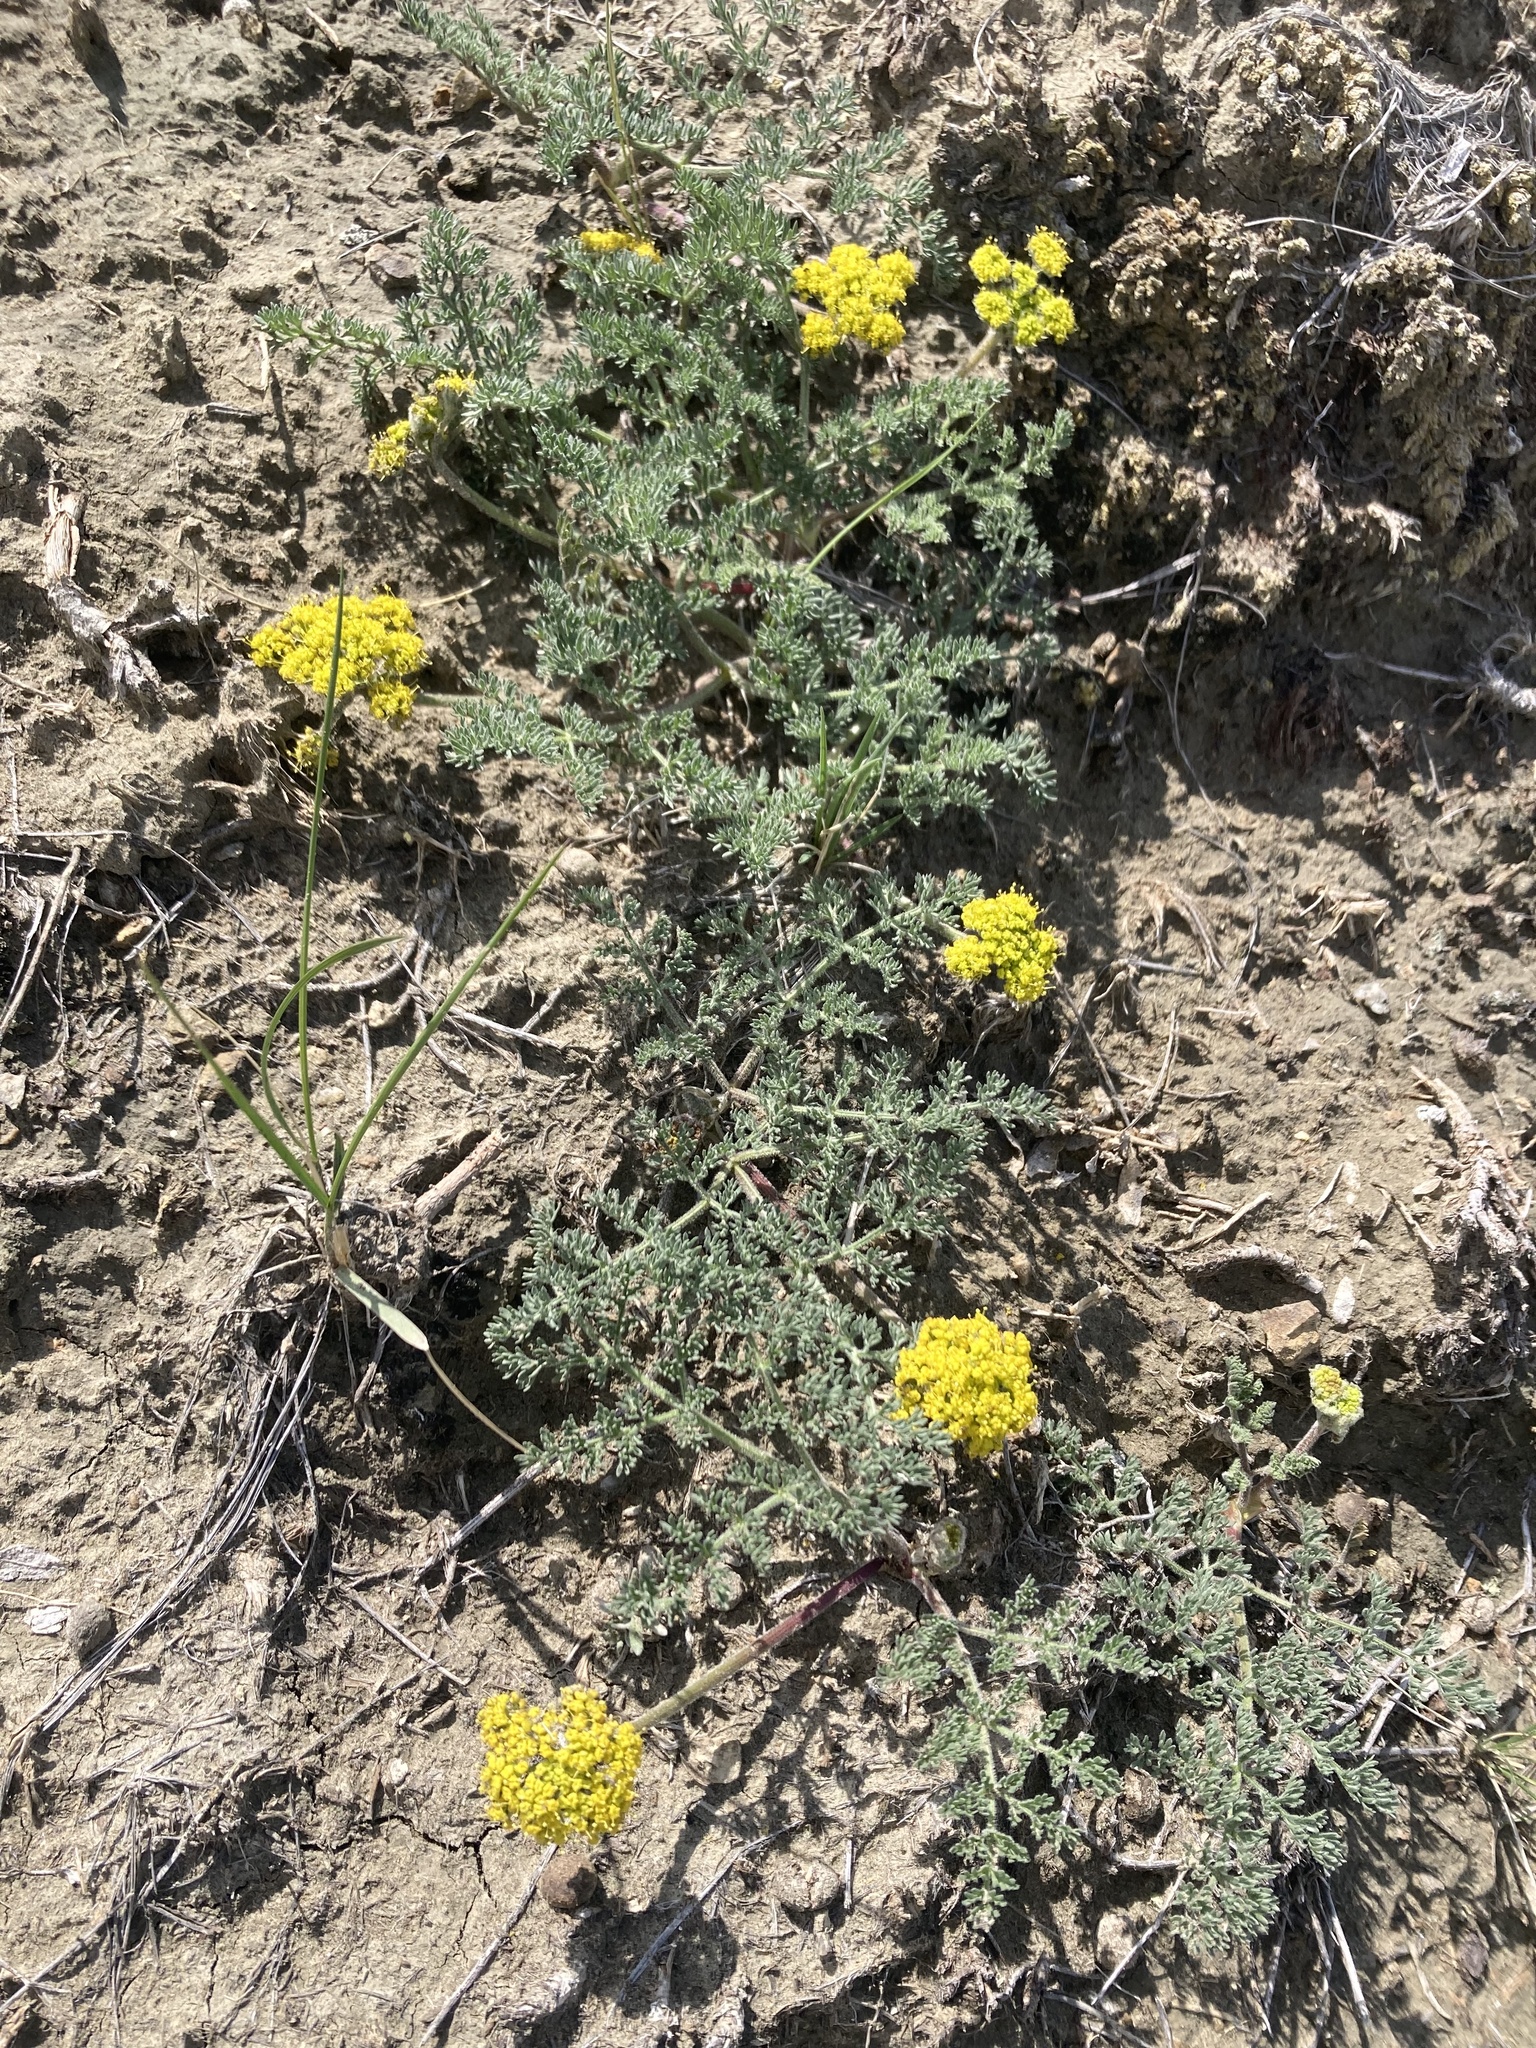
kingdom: Plantae
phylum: Tracheophyta
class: Magnoliopsida
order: Apiales
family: Apiaceae
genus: Lomatium
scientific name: Lomatium foeniculaceum
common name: Desert-parsley
